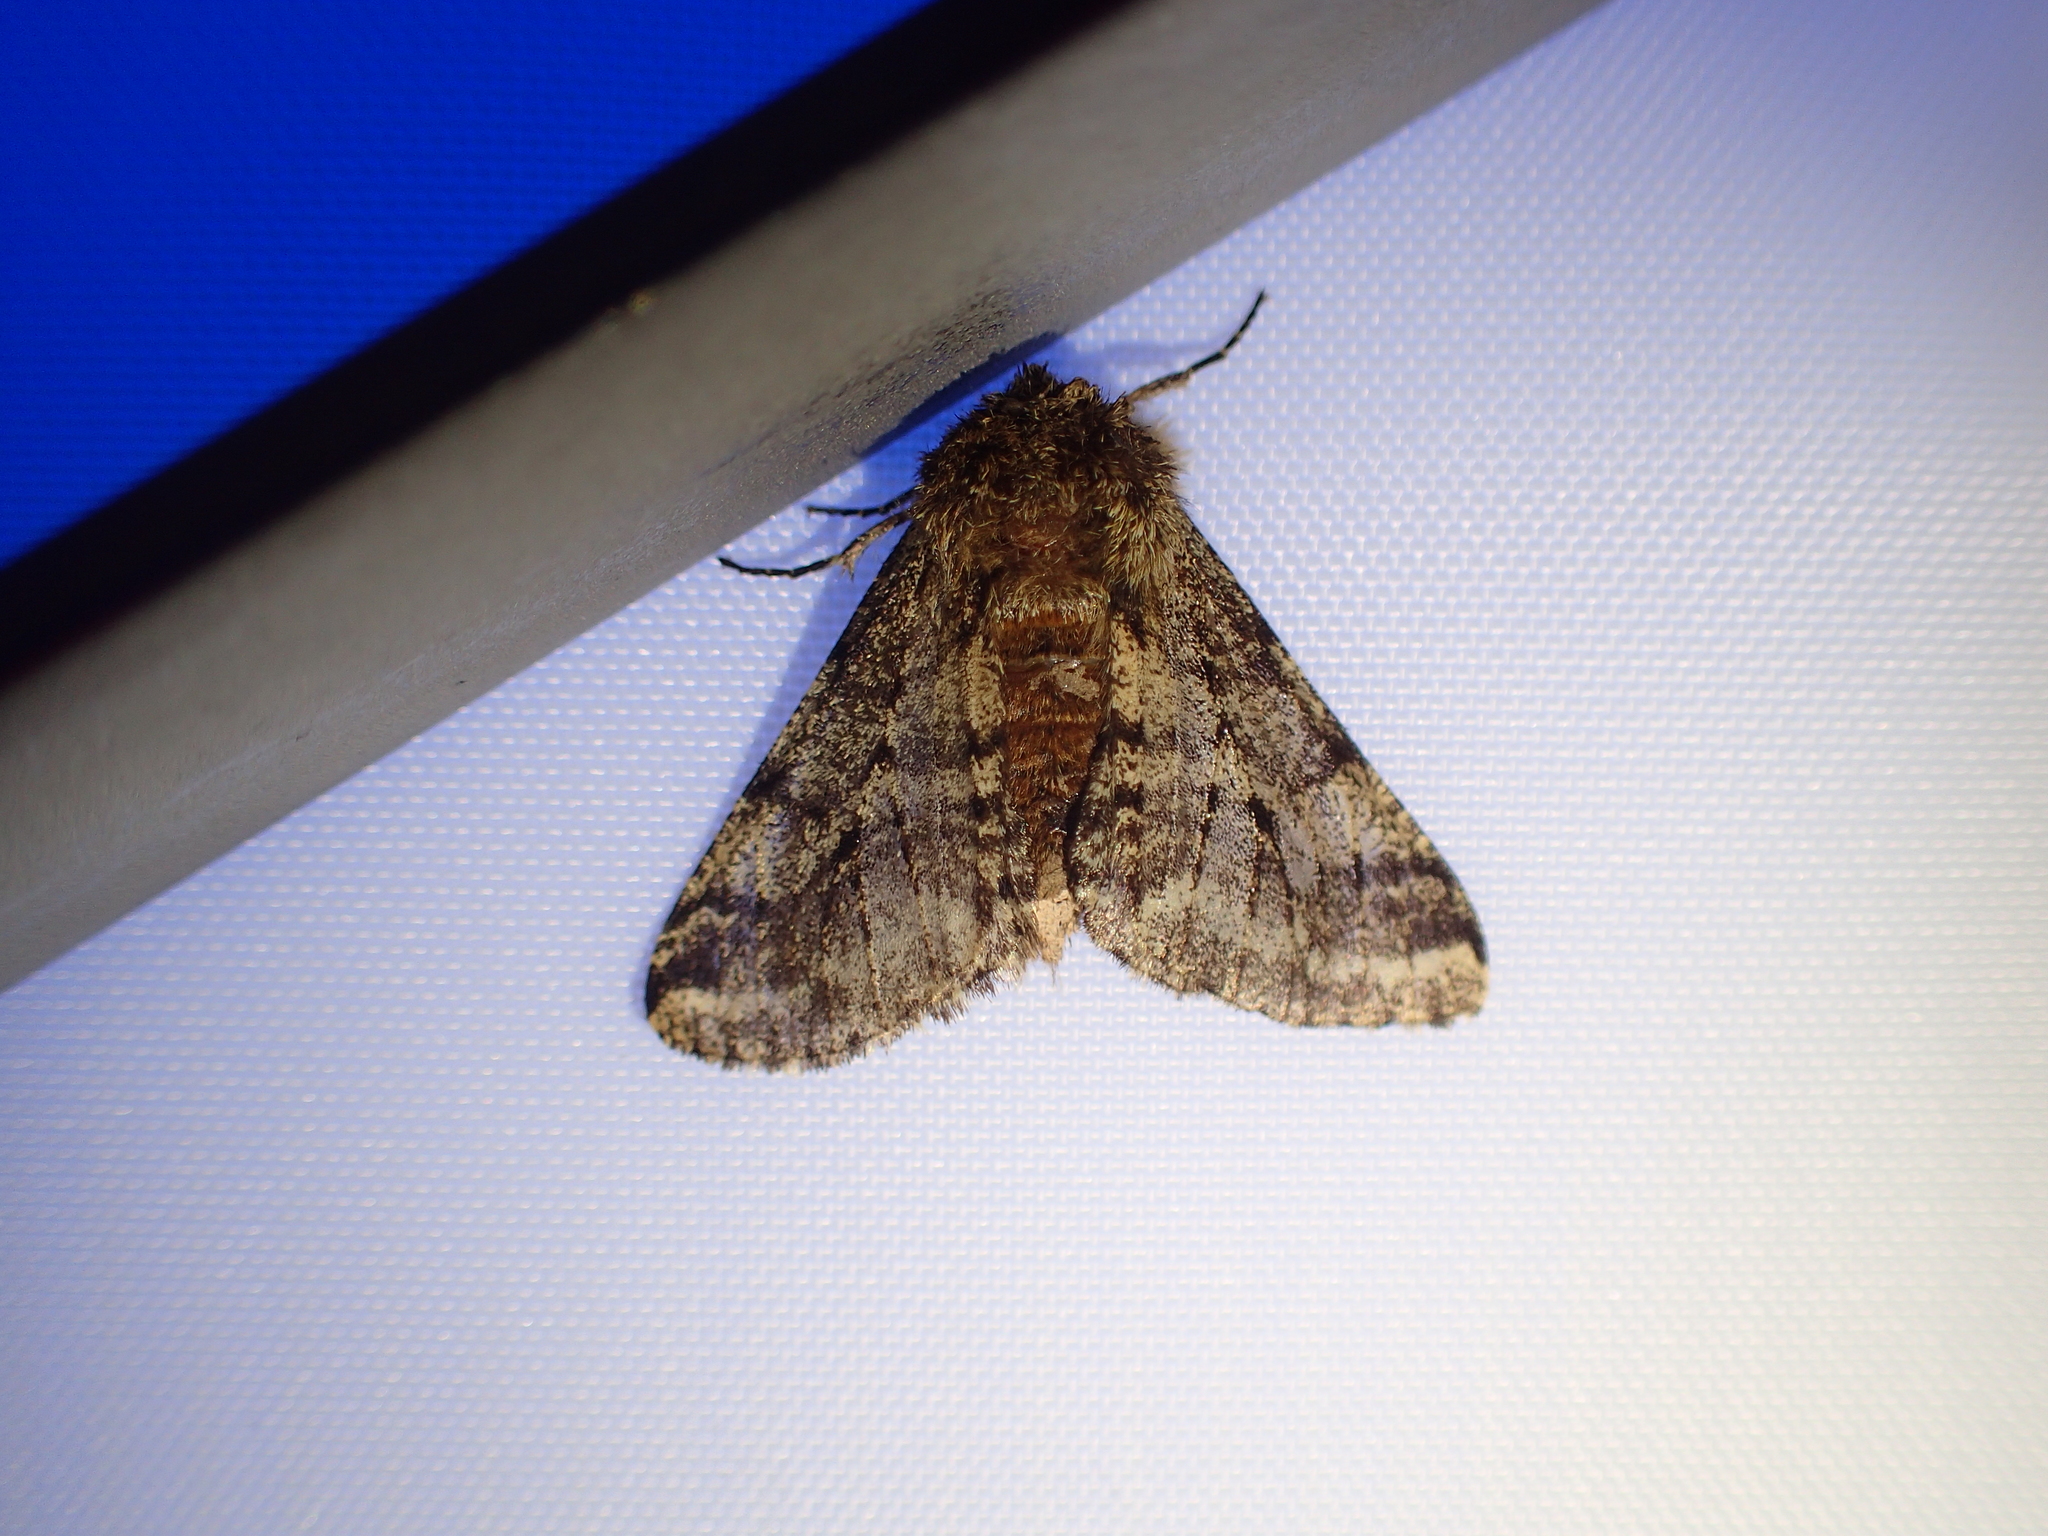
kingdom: Animalia
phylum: Arthropoda
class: Insecta
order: Lepidoptera
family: Geometridae
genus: Lycia
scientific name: Lycia hirtaria
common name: Brindled beauty
